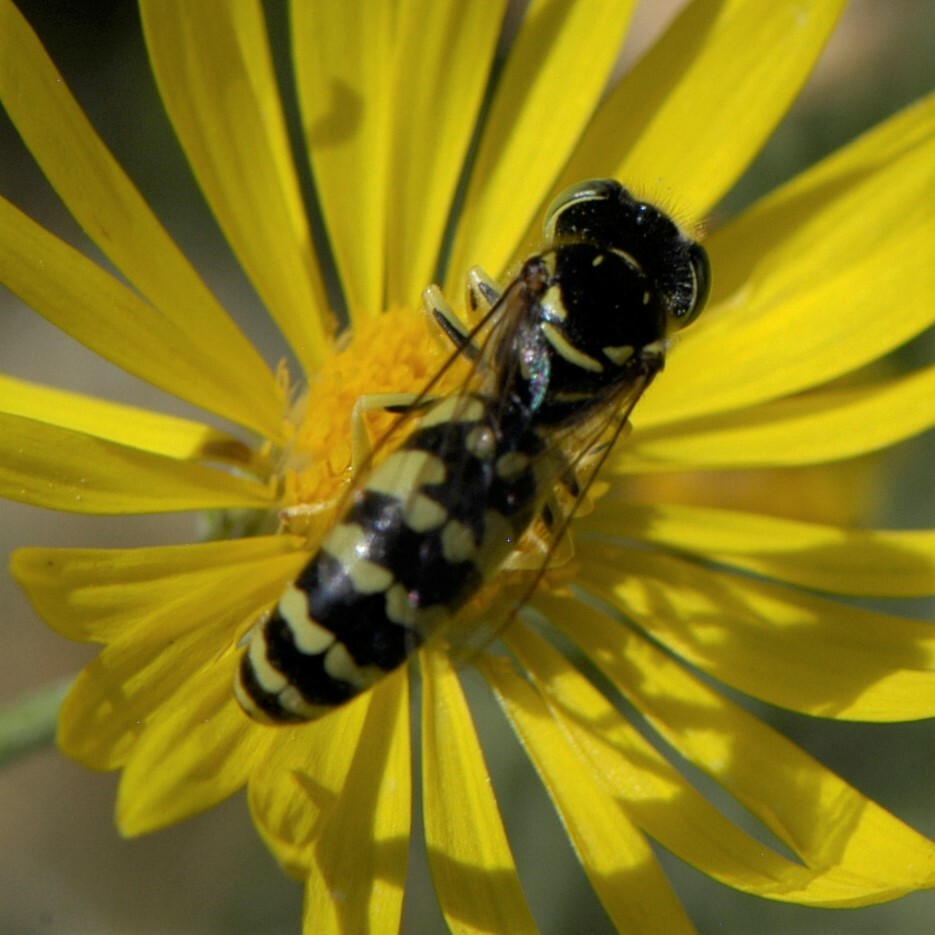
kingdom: Animalia
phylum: Arthropoda
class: Insecta
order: Hymenoptera
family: Crabronidae
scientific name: Crabronidae
